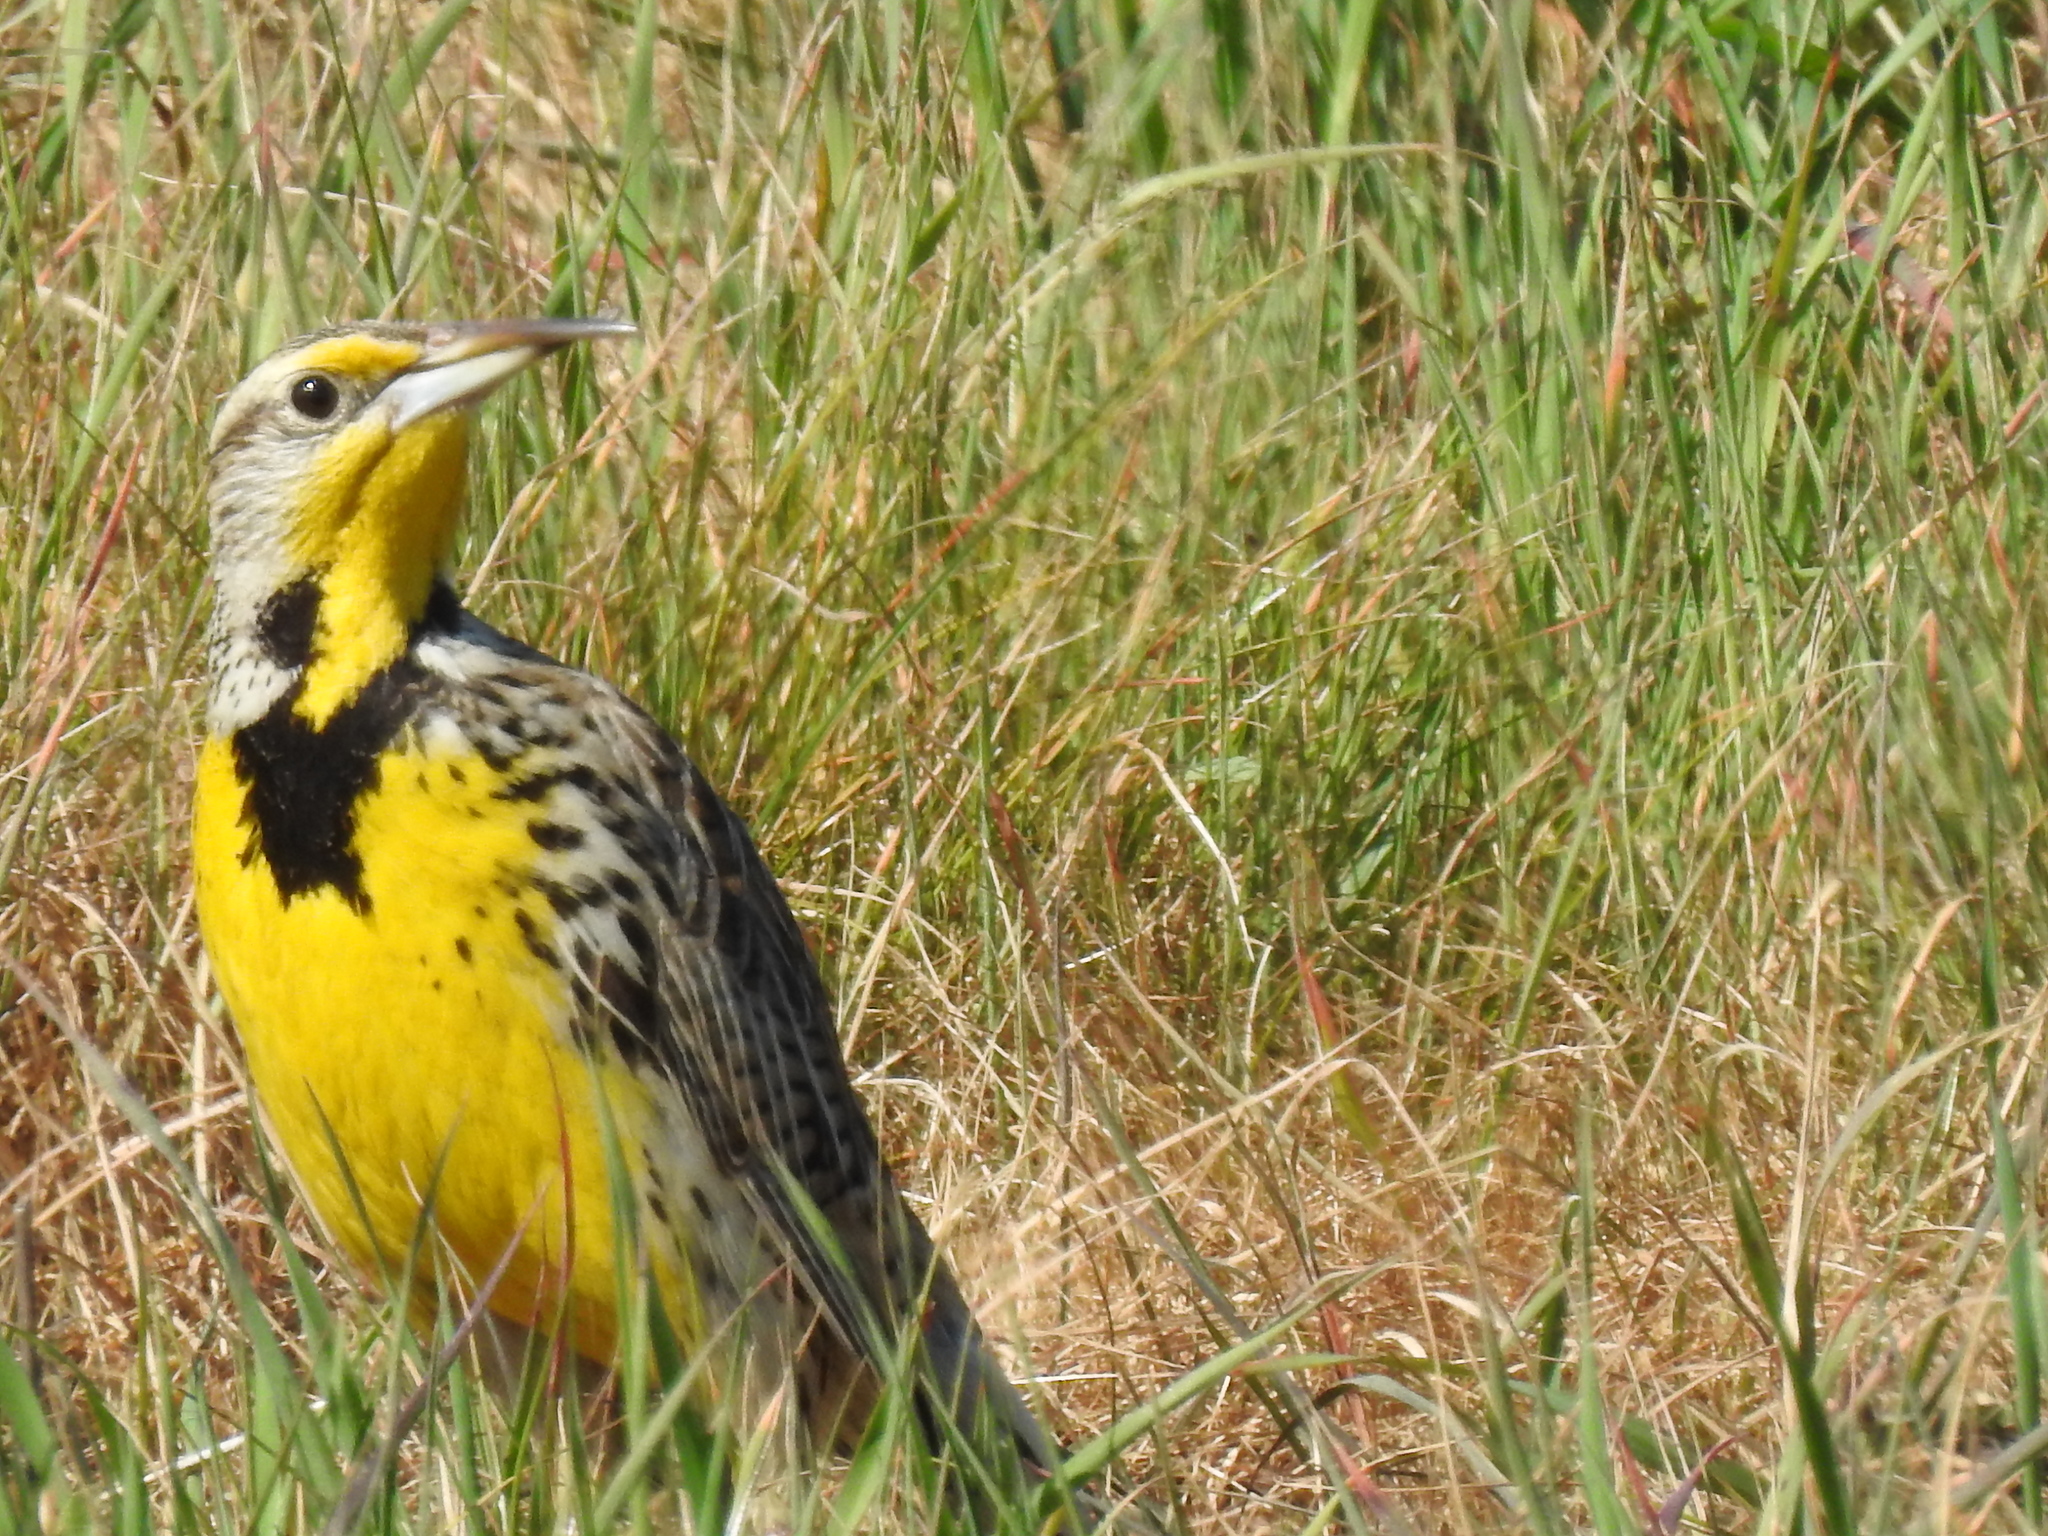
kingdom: Animalia
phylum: Chordata
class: Aves
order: Passeriformes
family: Icteridae
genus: Sturnella
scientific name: Sturnella neglecta
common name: Western meadowlark
